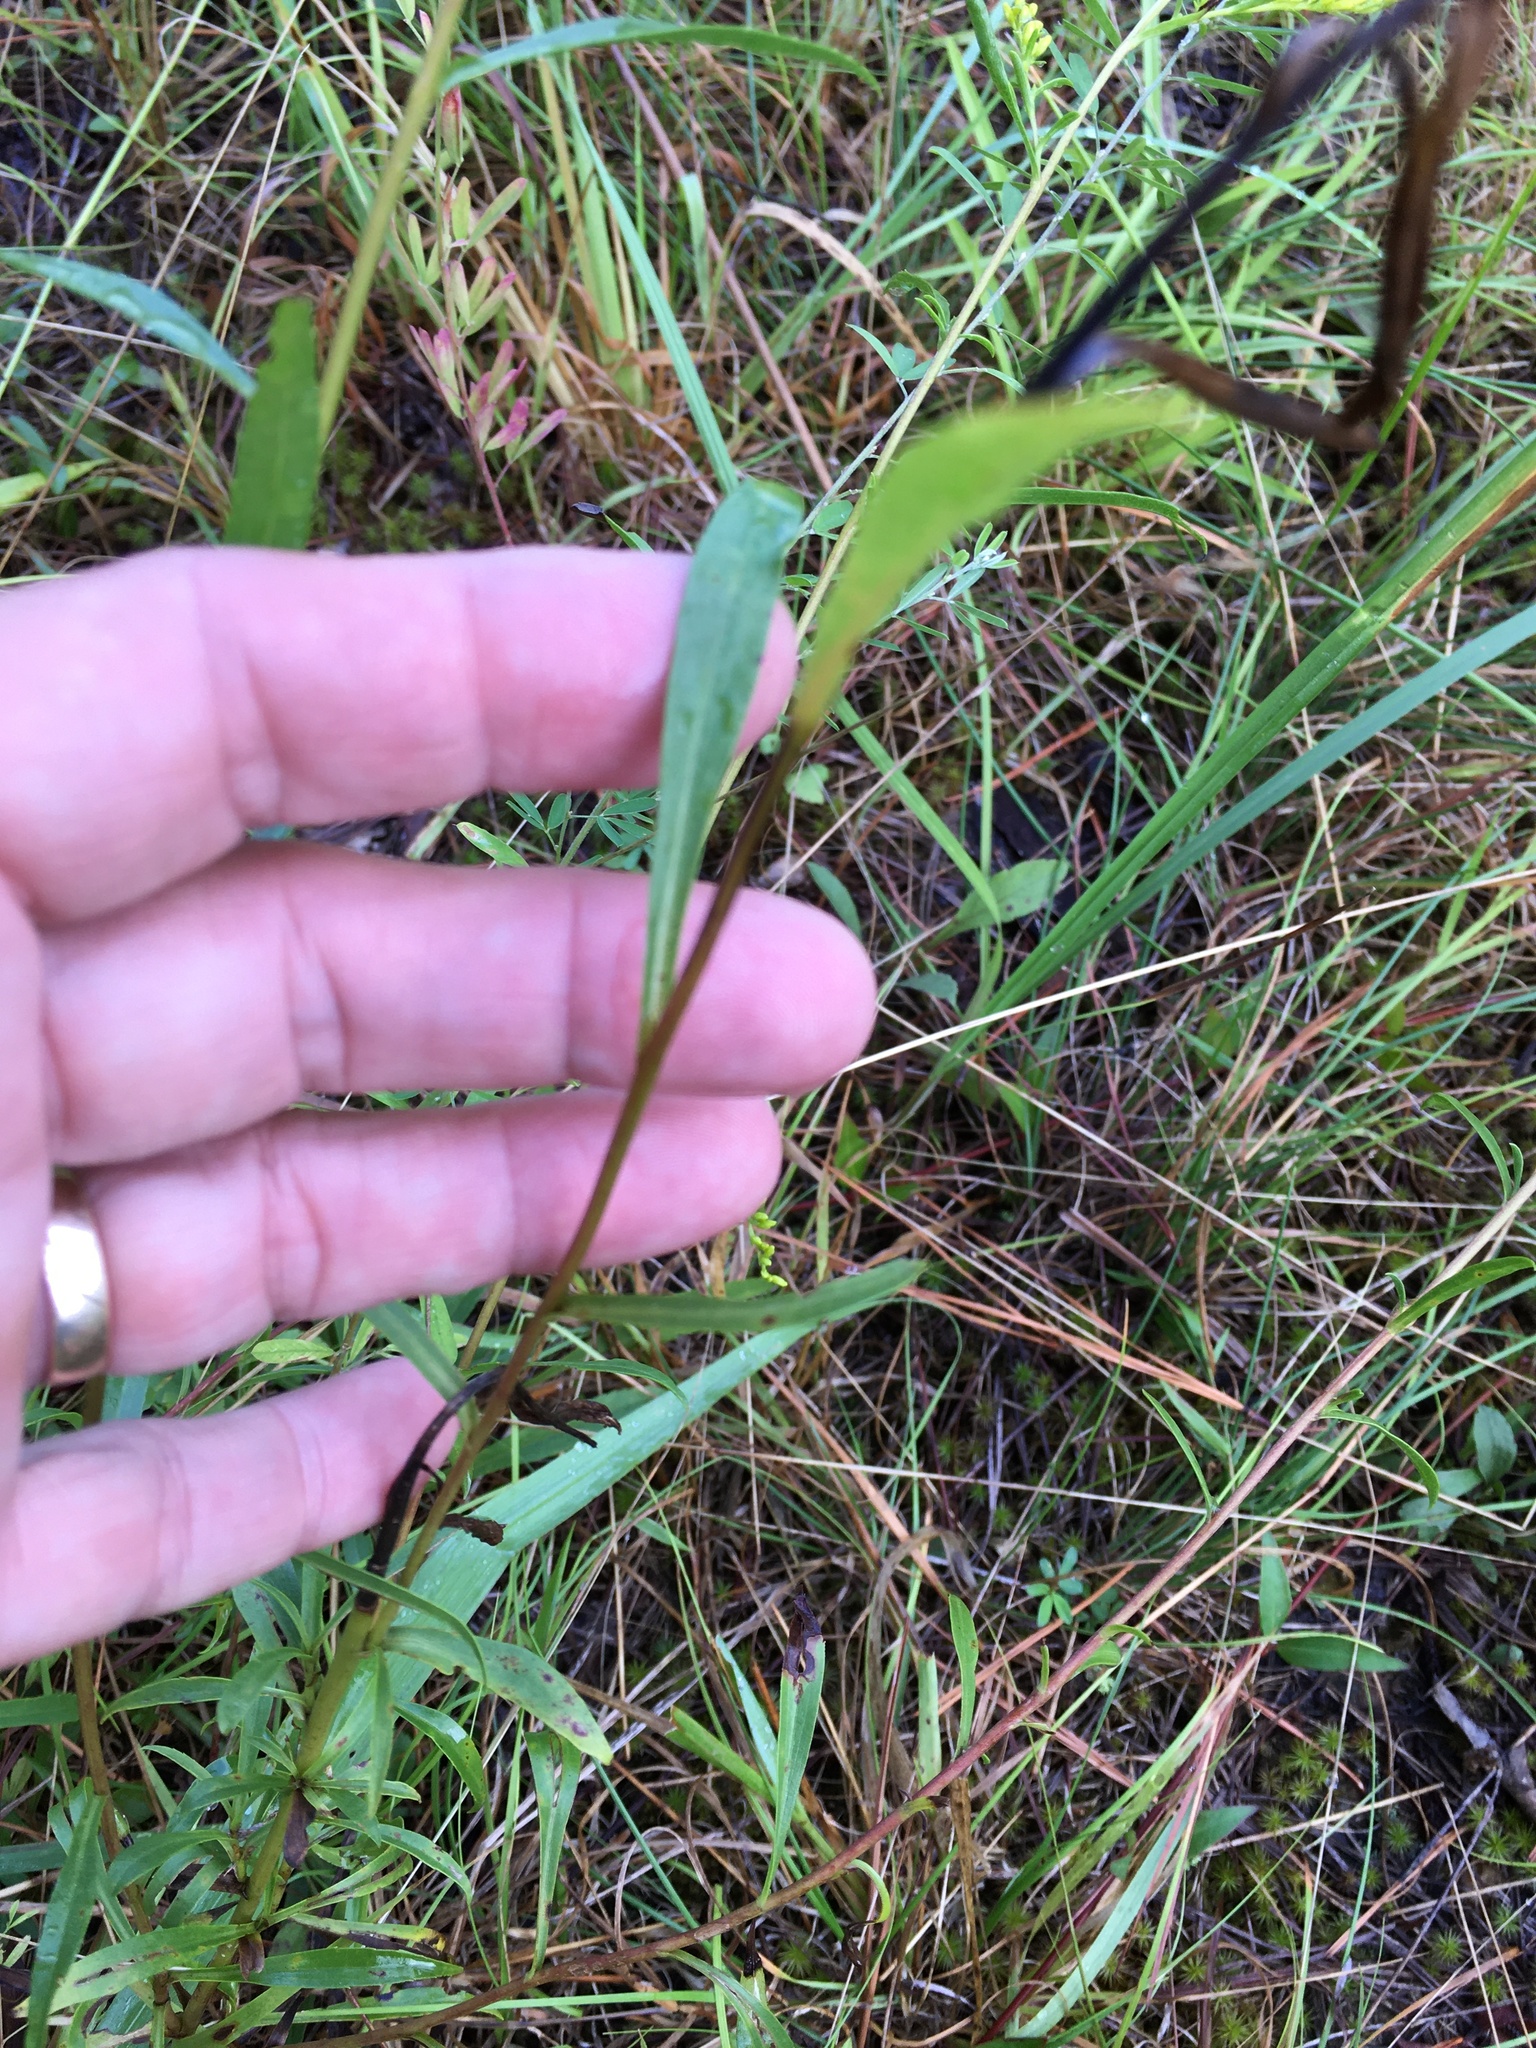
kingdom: Plantae
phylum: Tracheophyta
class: Magnoliopsida
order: Asterales
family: Asteraceae
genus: Solidago
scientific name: Solidago pinetorum
